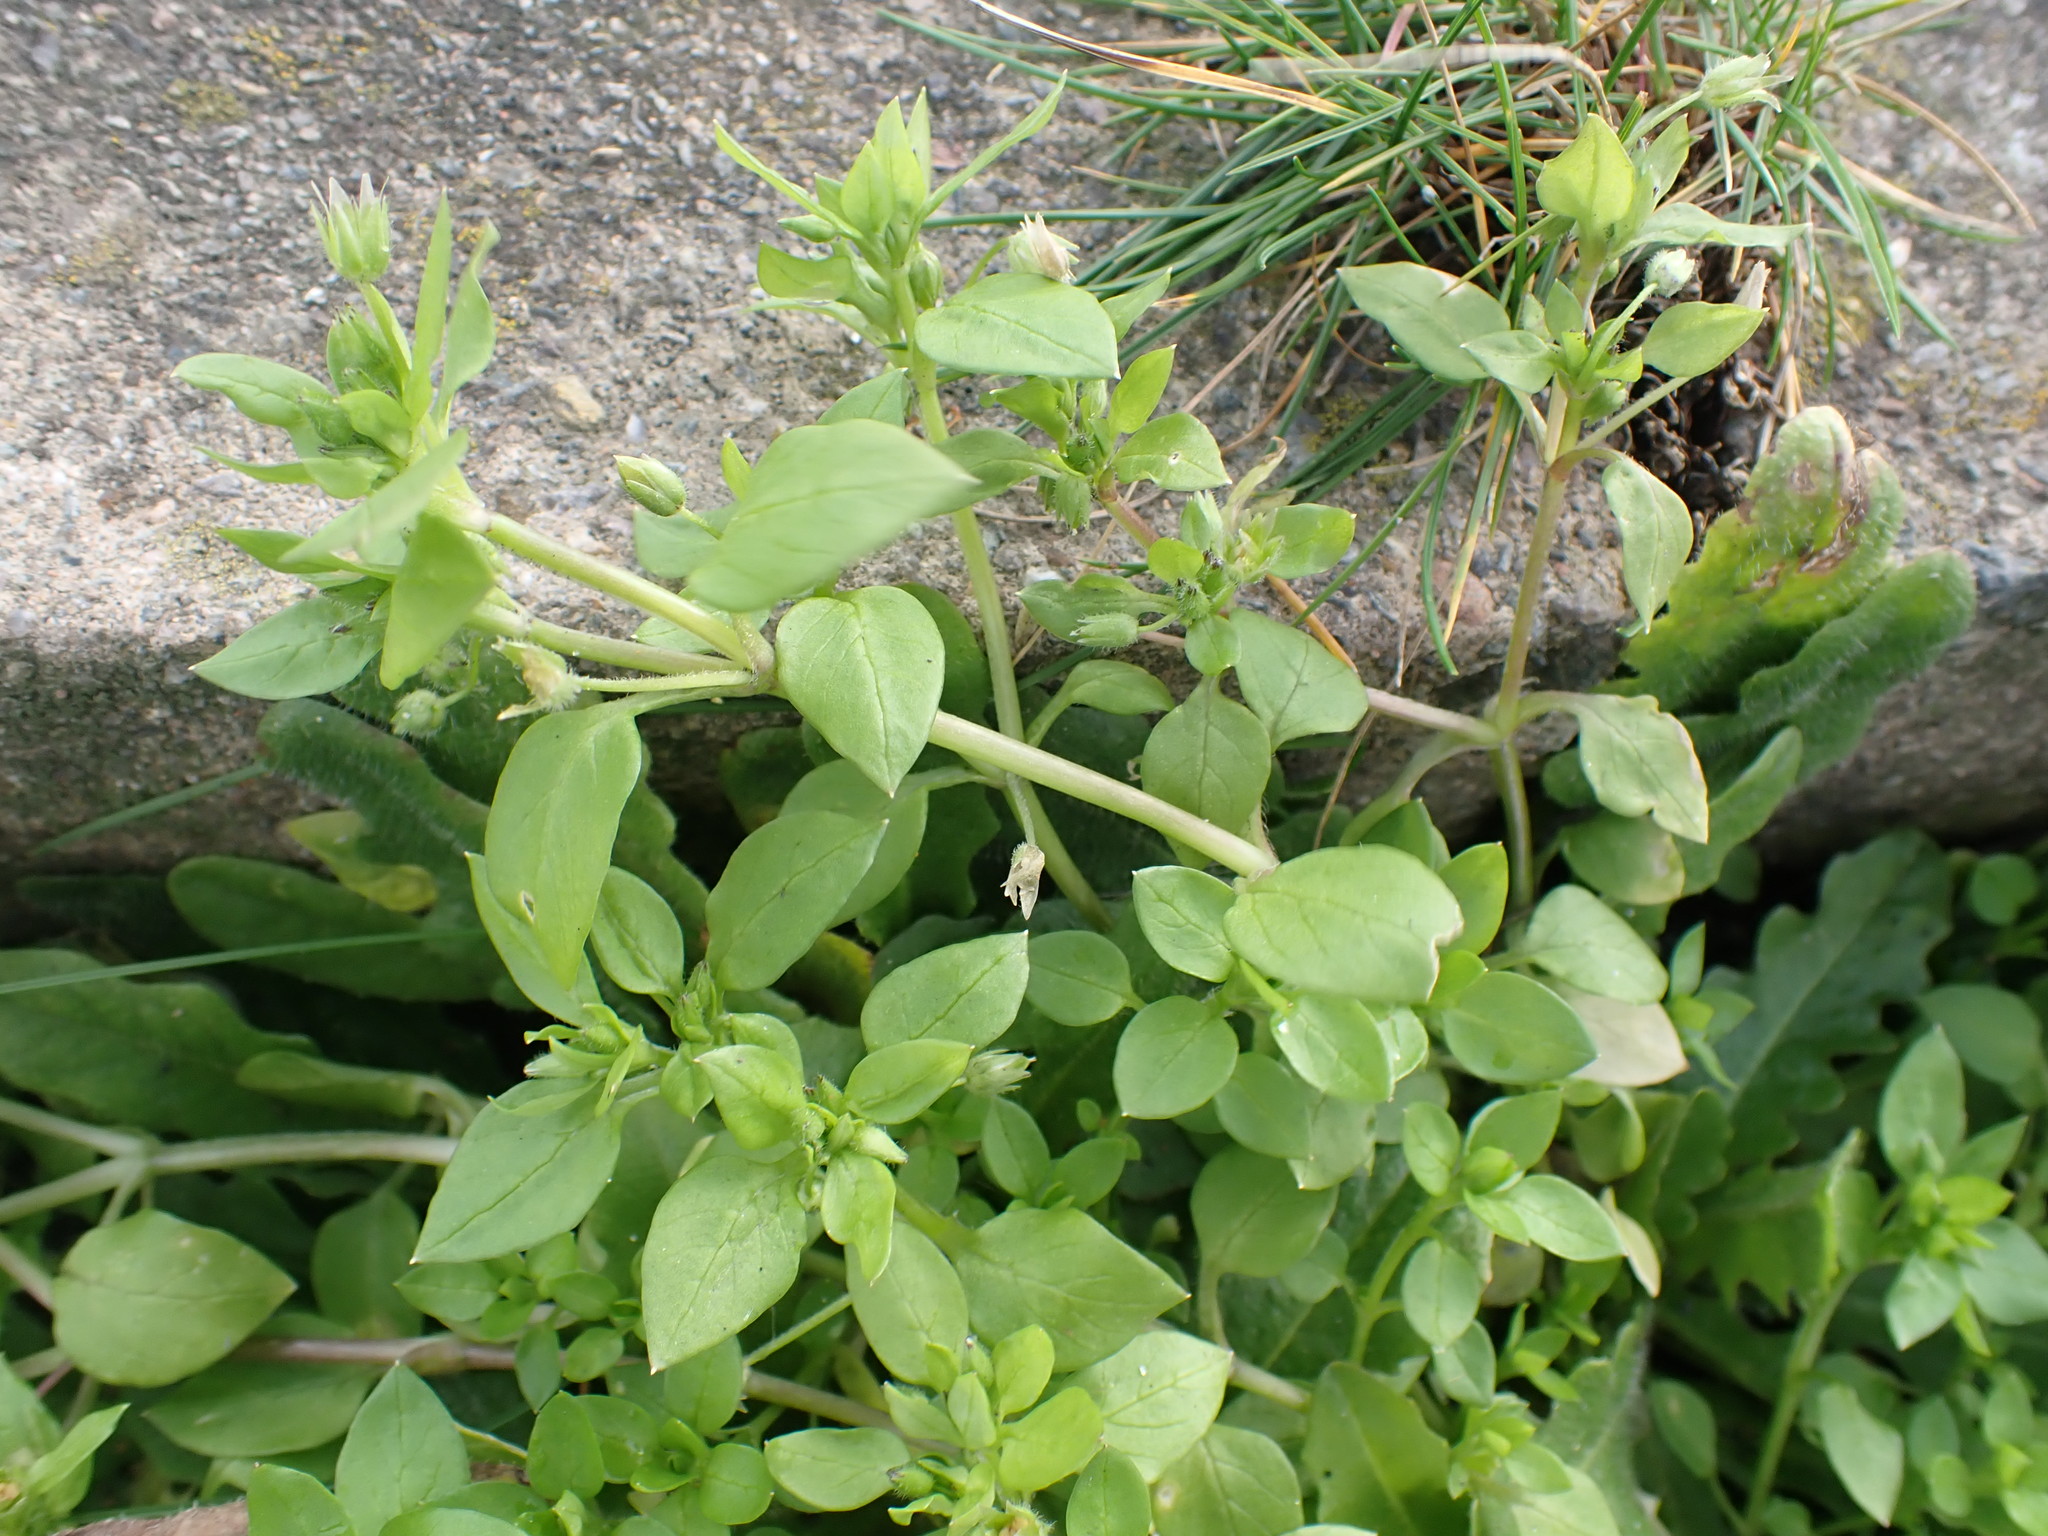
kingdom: Plantae
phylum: Tracheophyta
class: Magnoliopsida
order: Caryophyllales
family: Caryophyllaceae
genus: Stellaria
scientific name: Stellaria media
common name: Common chickweed
